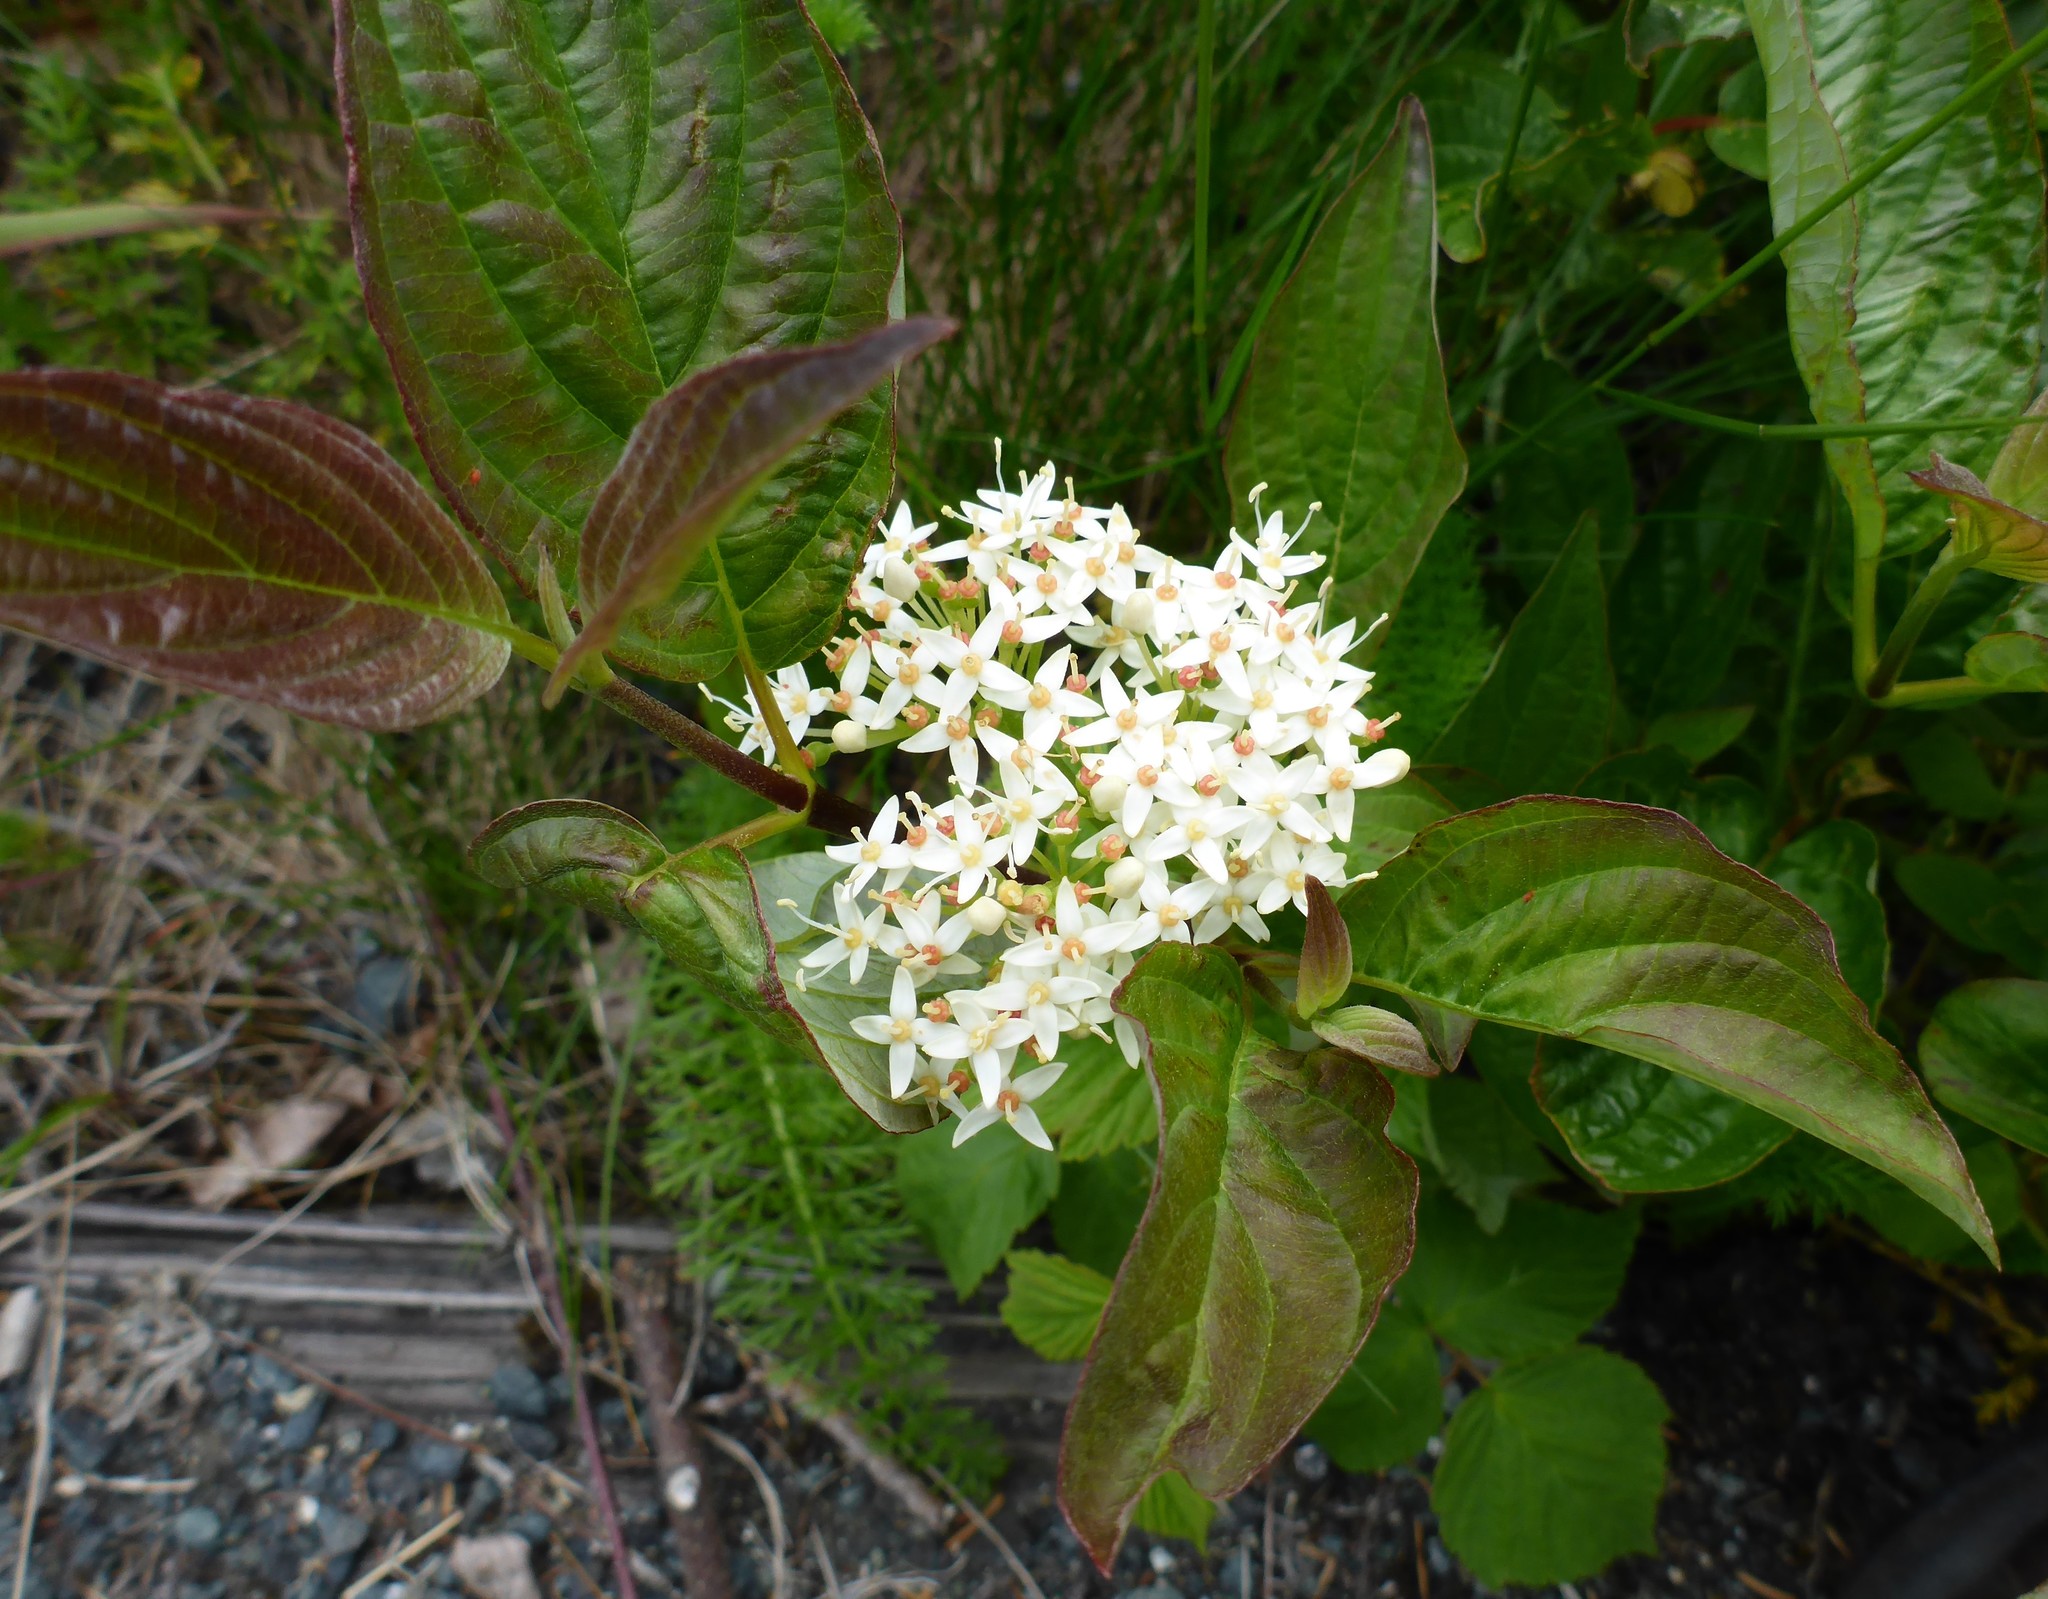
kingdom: Plantae
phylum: Tracheophyta
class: Magnoliopsida
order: Cornales
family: Cornaceae
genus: Cornus
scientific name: Cornus sericea
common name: Red-osier dogwood
